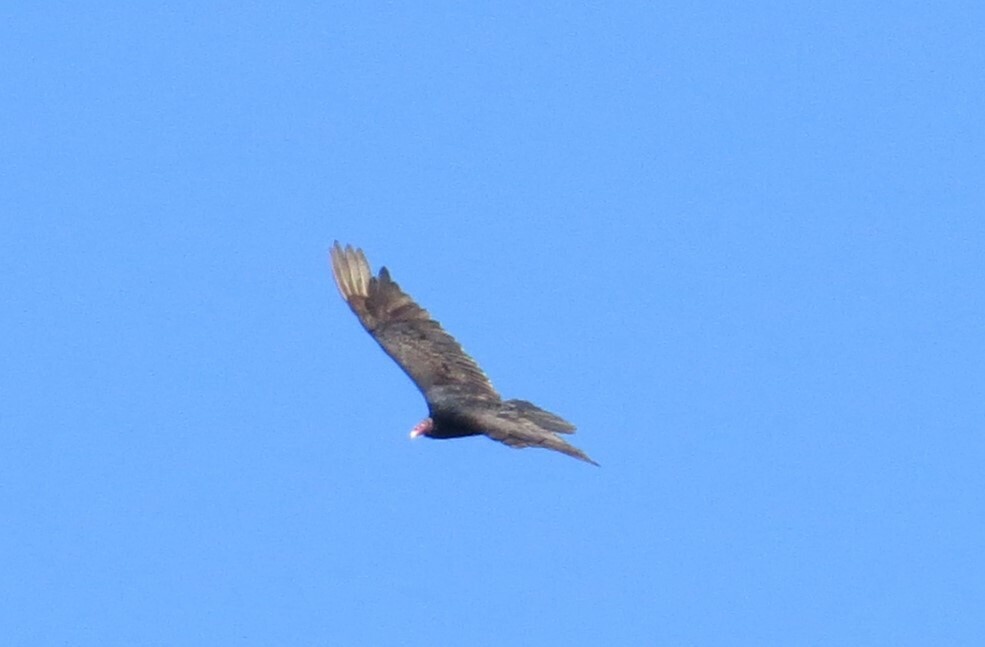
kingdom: Animalia
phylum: Chordata
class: Aves
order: Accipitriformes
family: Cathartidae
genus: Cathartes
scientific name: Cathartes aura
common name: Turkey vulture
